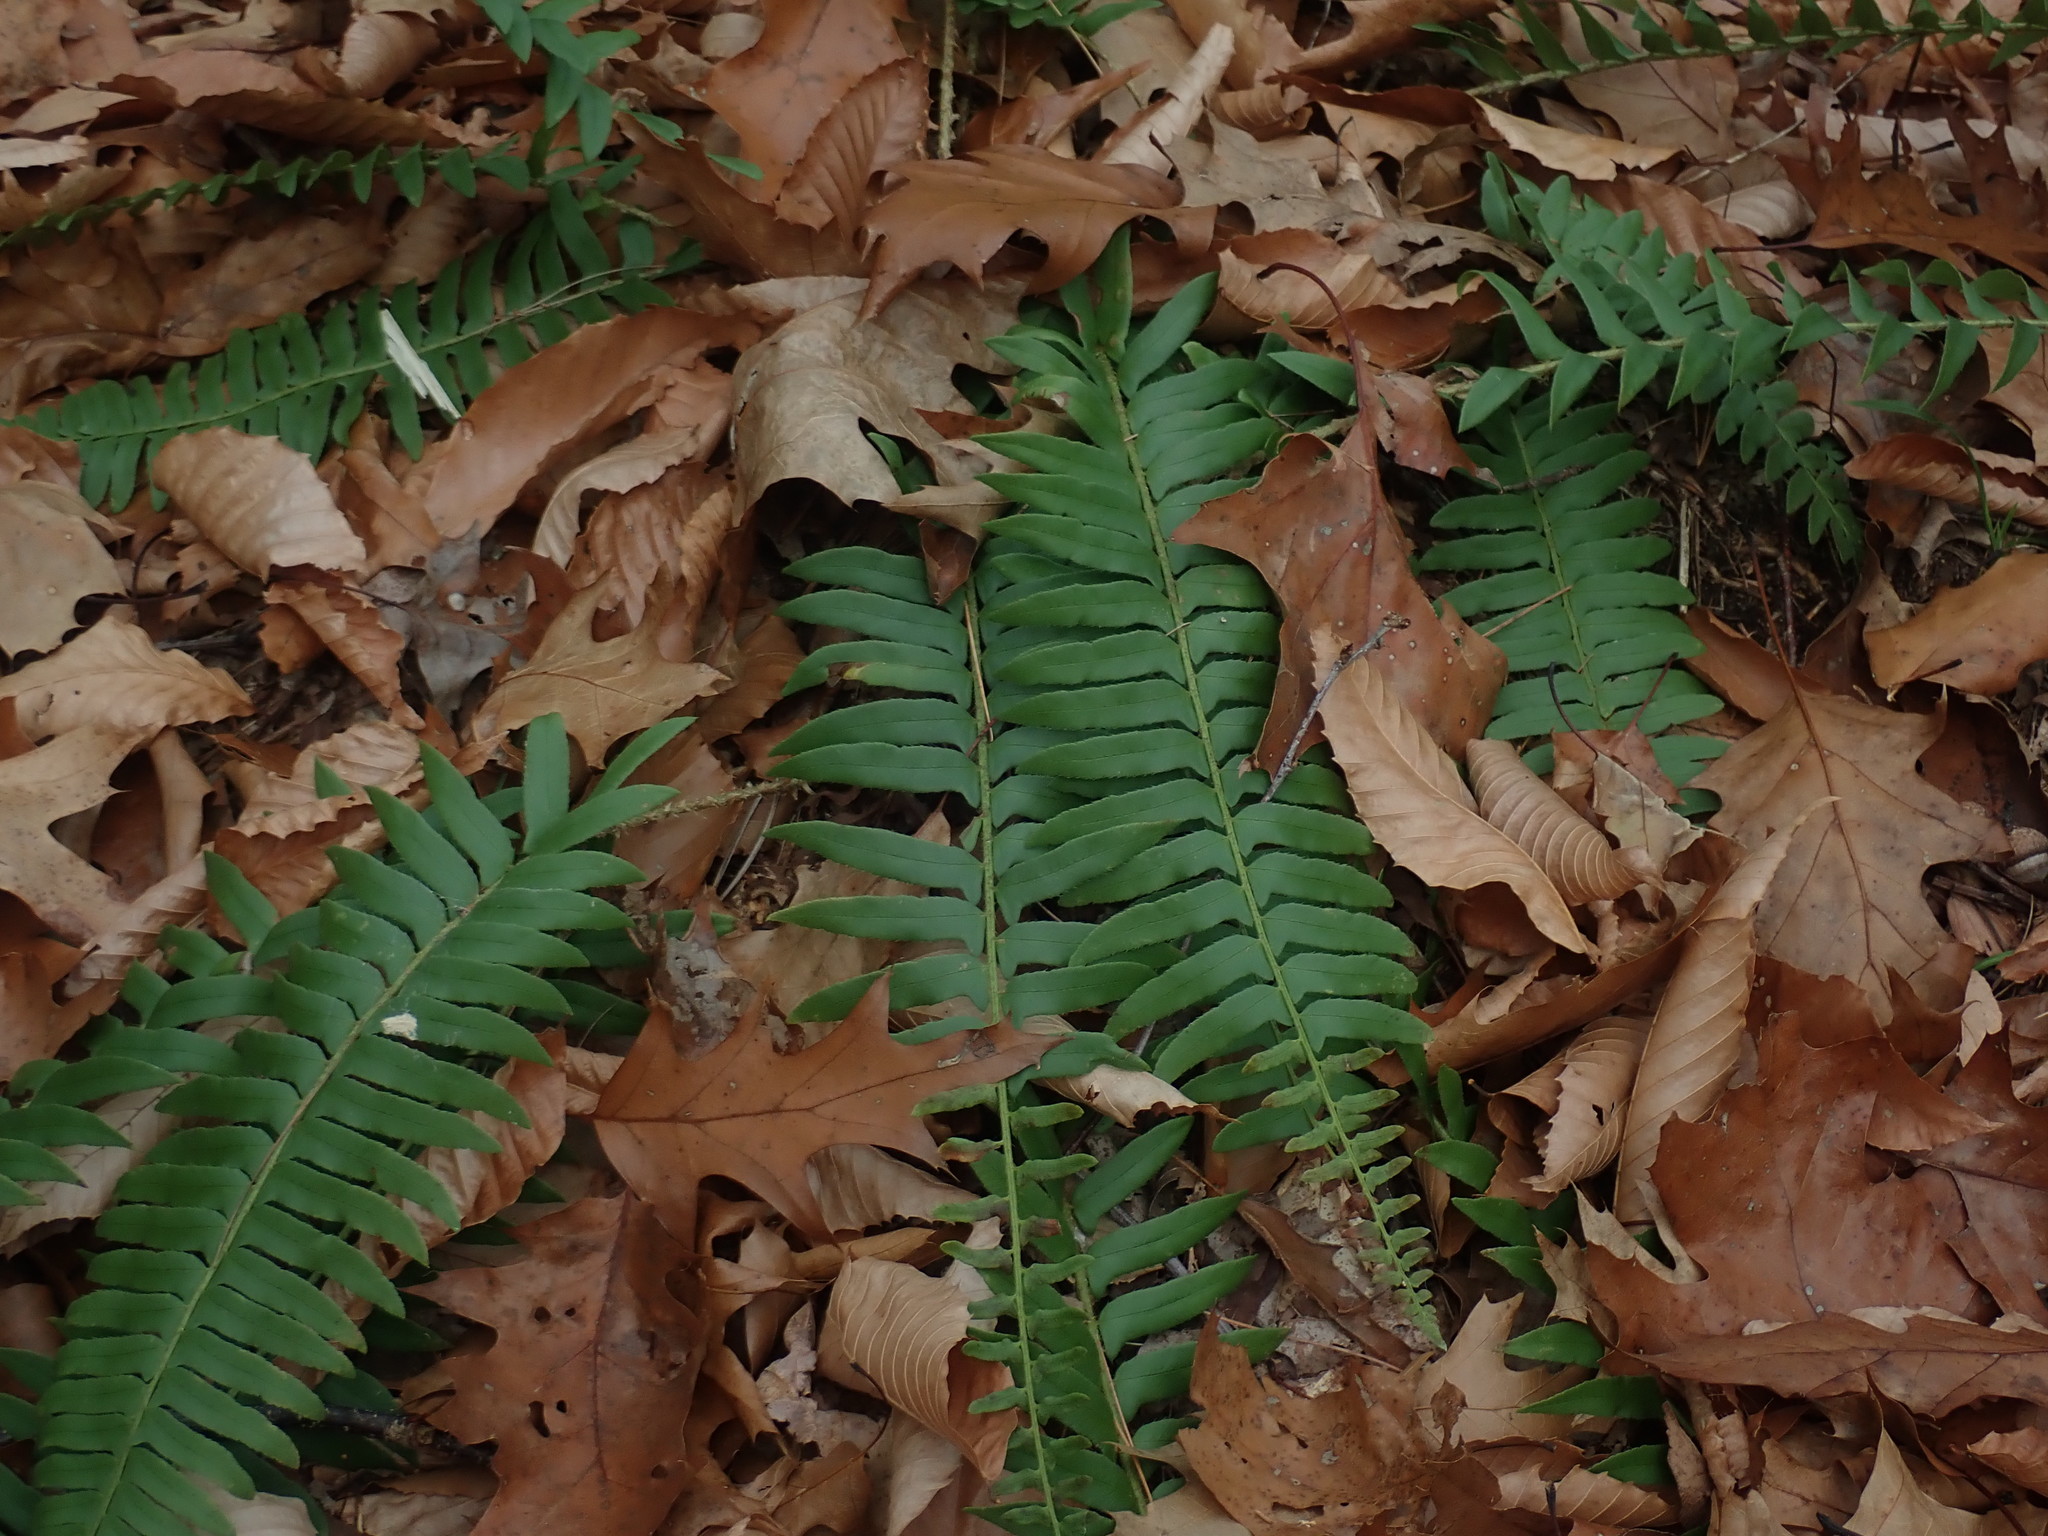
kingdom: Plantae
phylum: Tracheophyta
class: Polypodiopsida
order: Polypodiales
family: Dryopteridaceae
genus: Polystichum
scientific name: Polystichum acrostichoides
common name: Christmas fern
